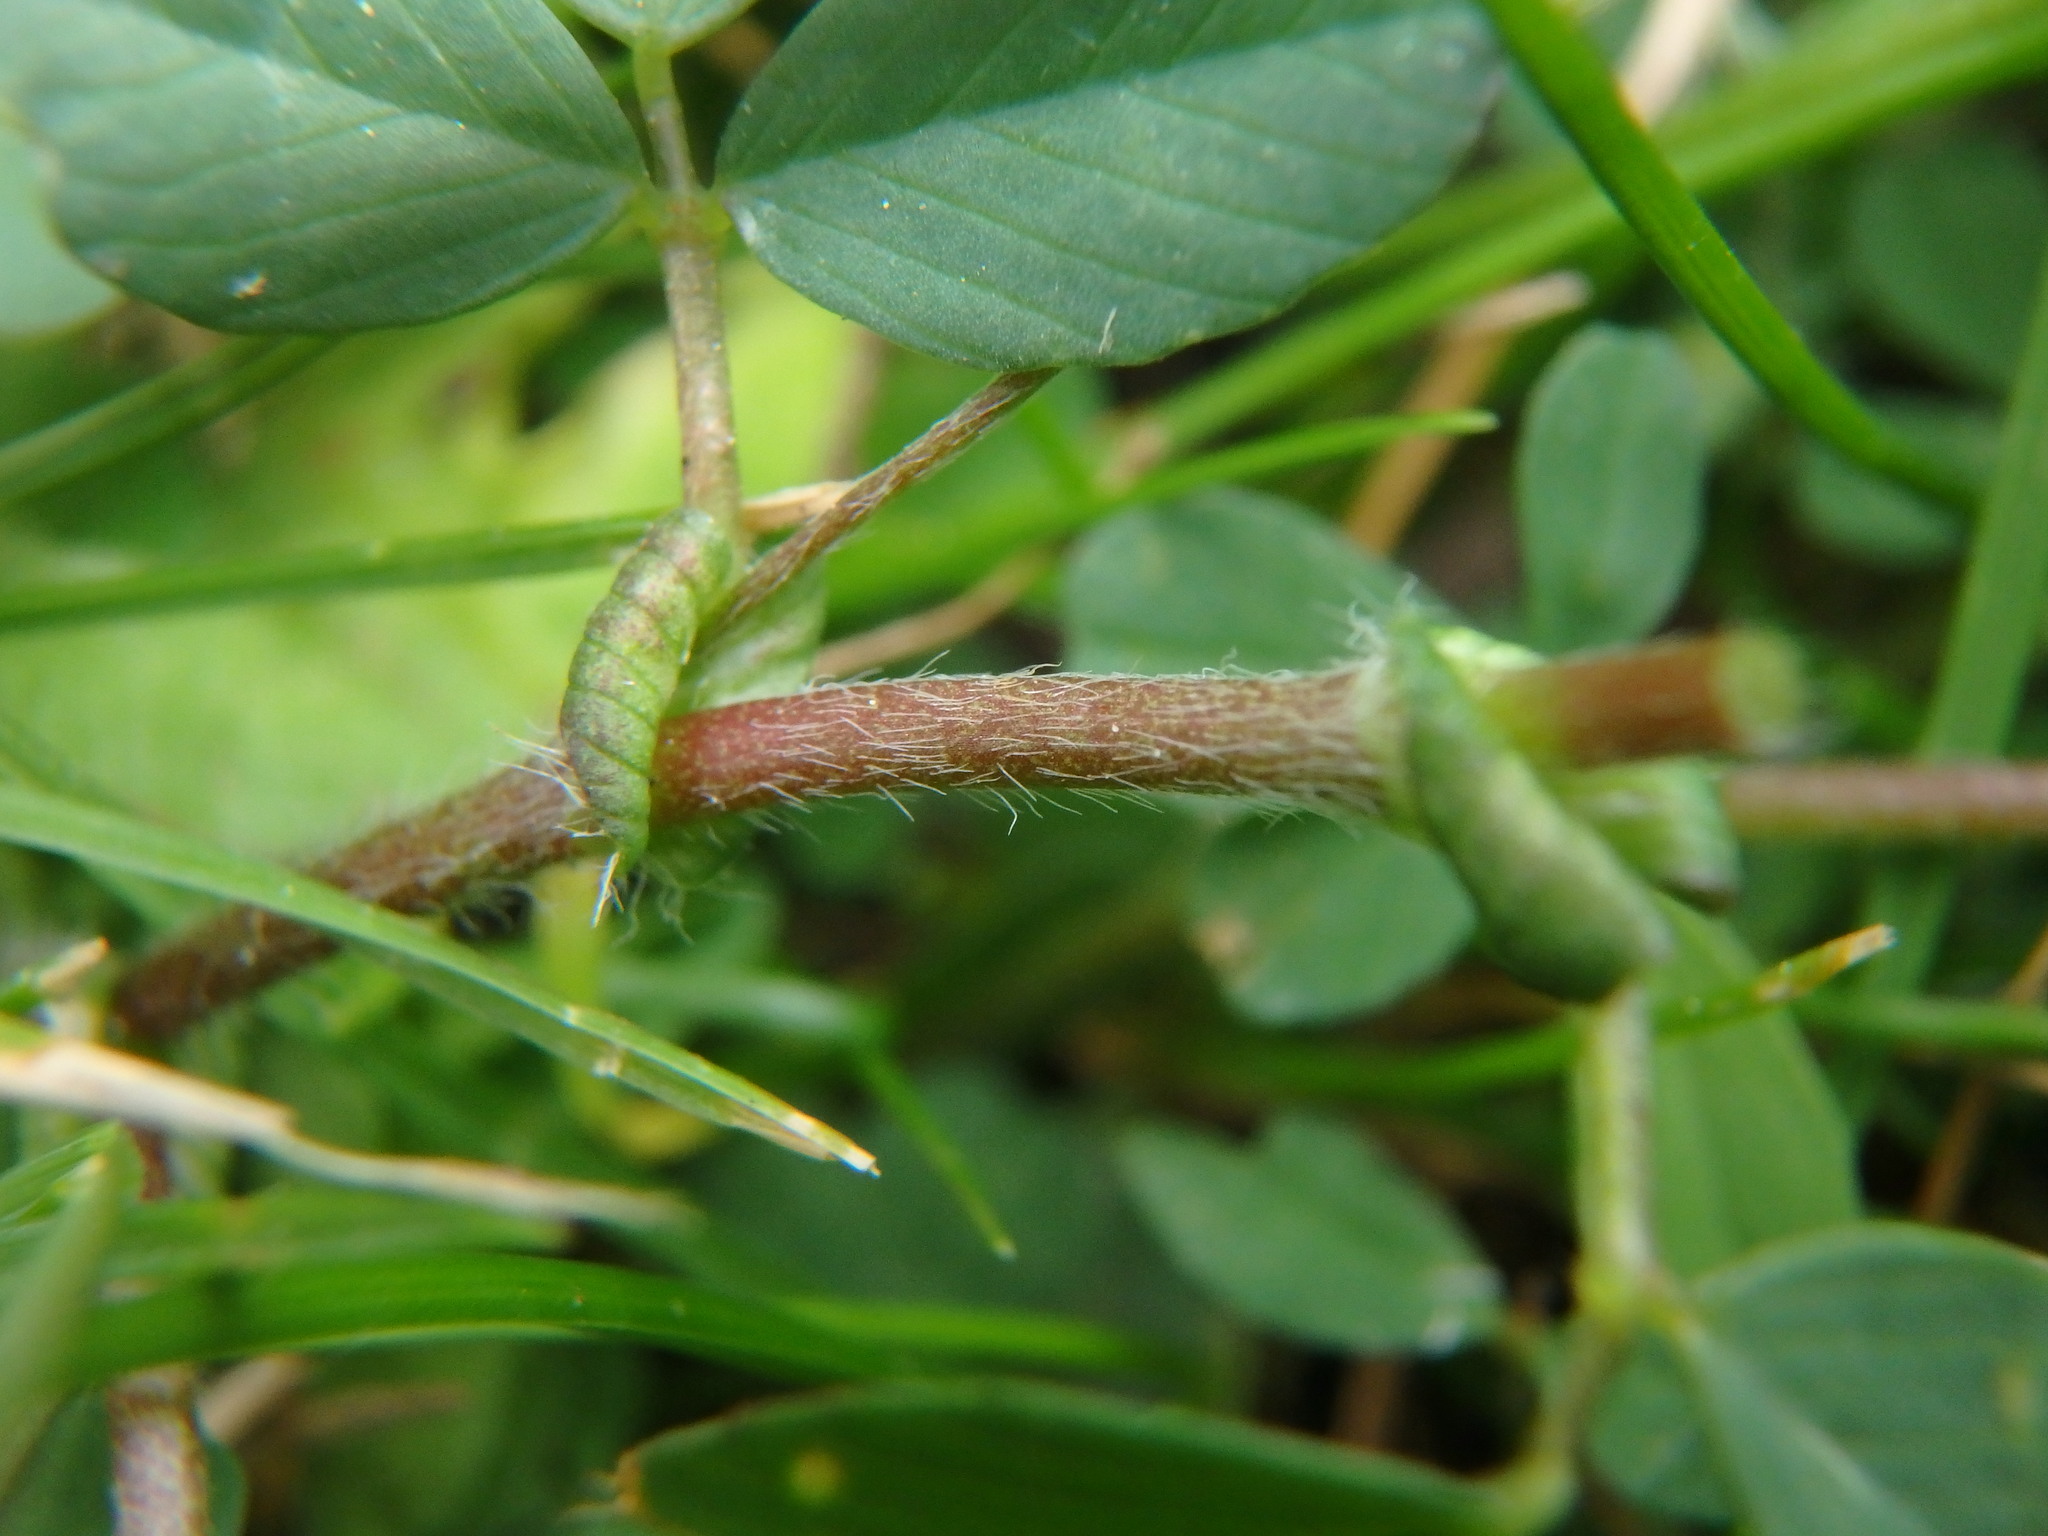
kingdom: Plantae
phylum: Tracheophyta
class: Magnoliopsida
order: Fabales
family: Fabaceae
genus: Trifolium
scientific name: Trifolium dubium
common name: Suckling clover
